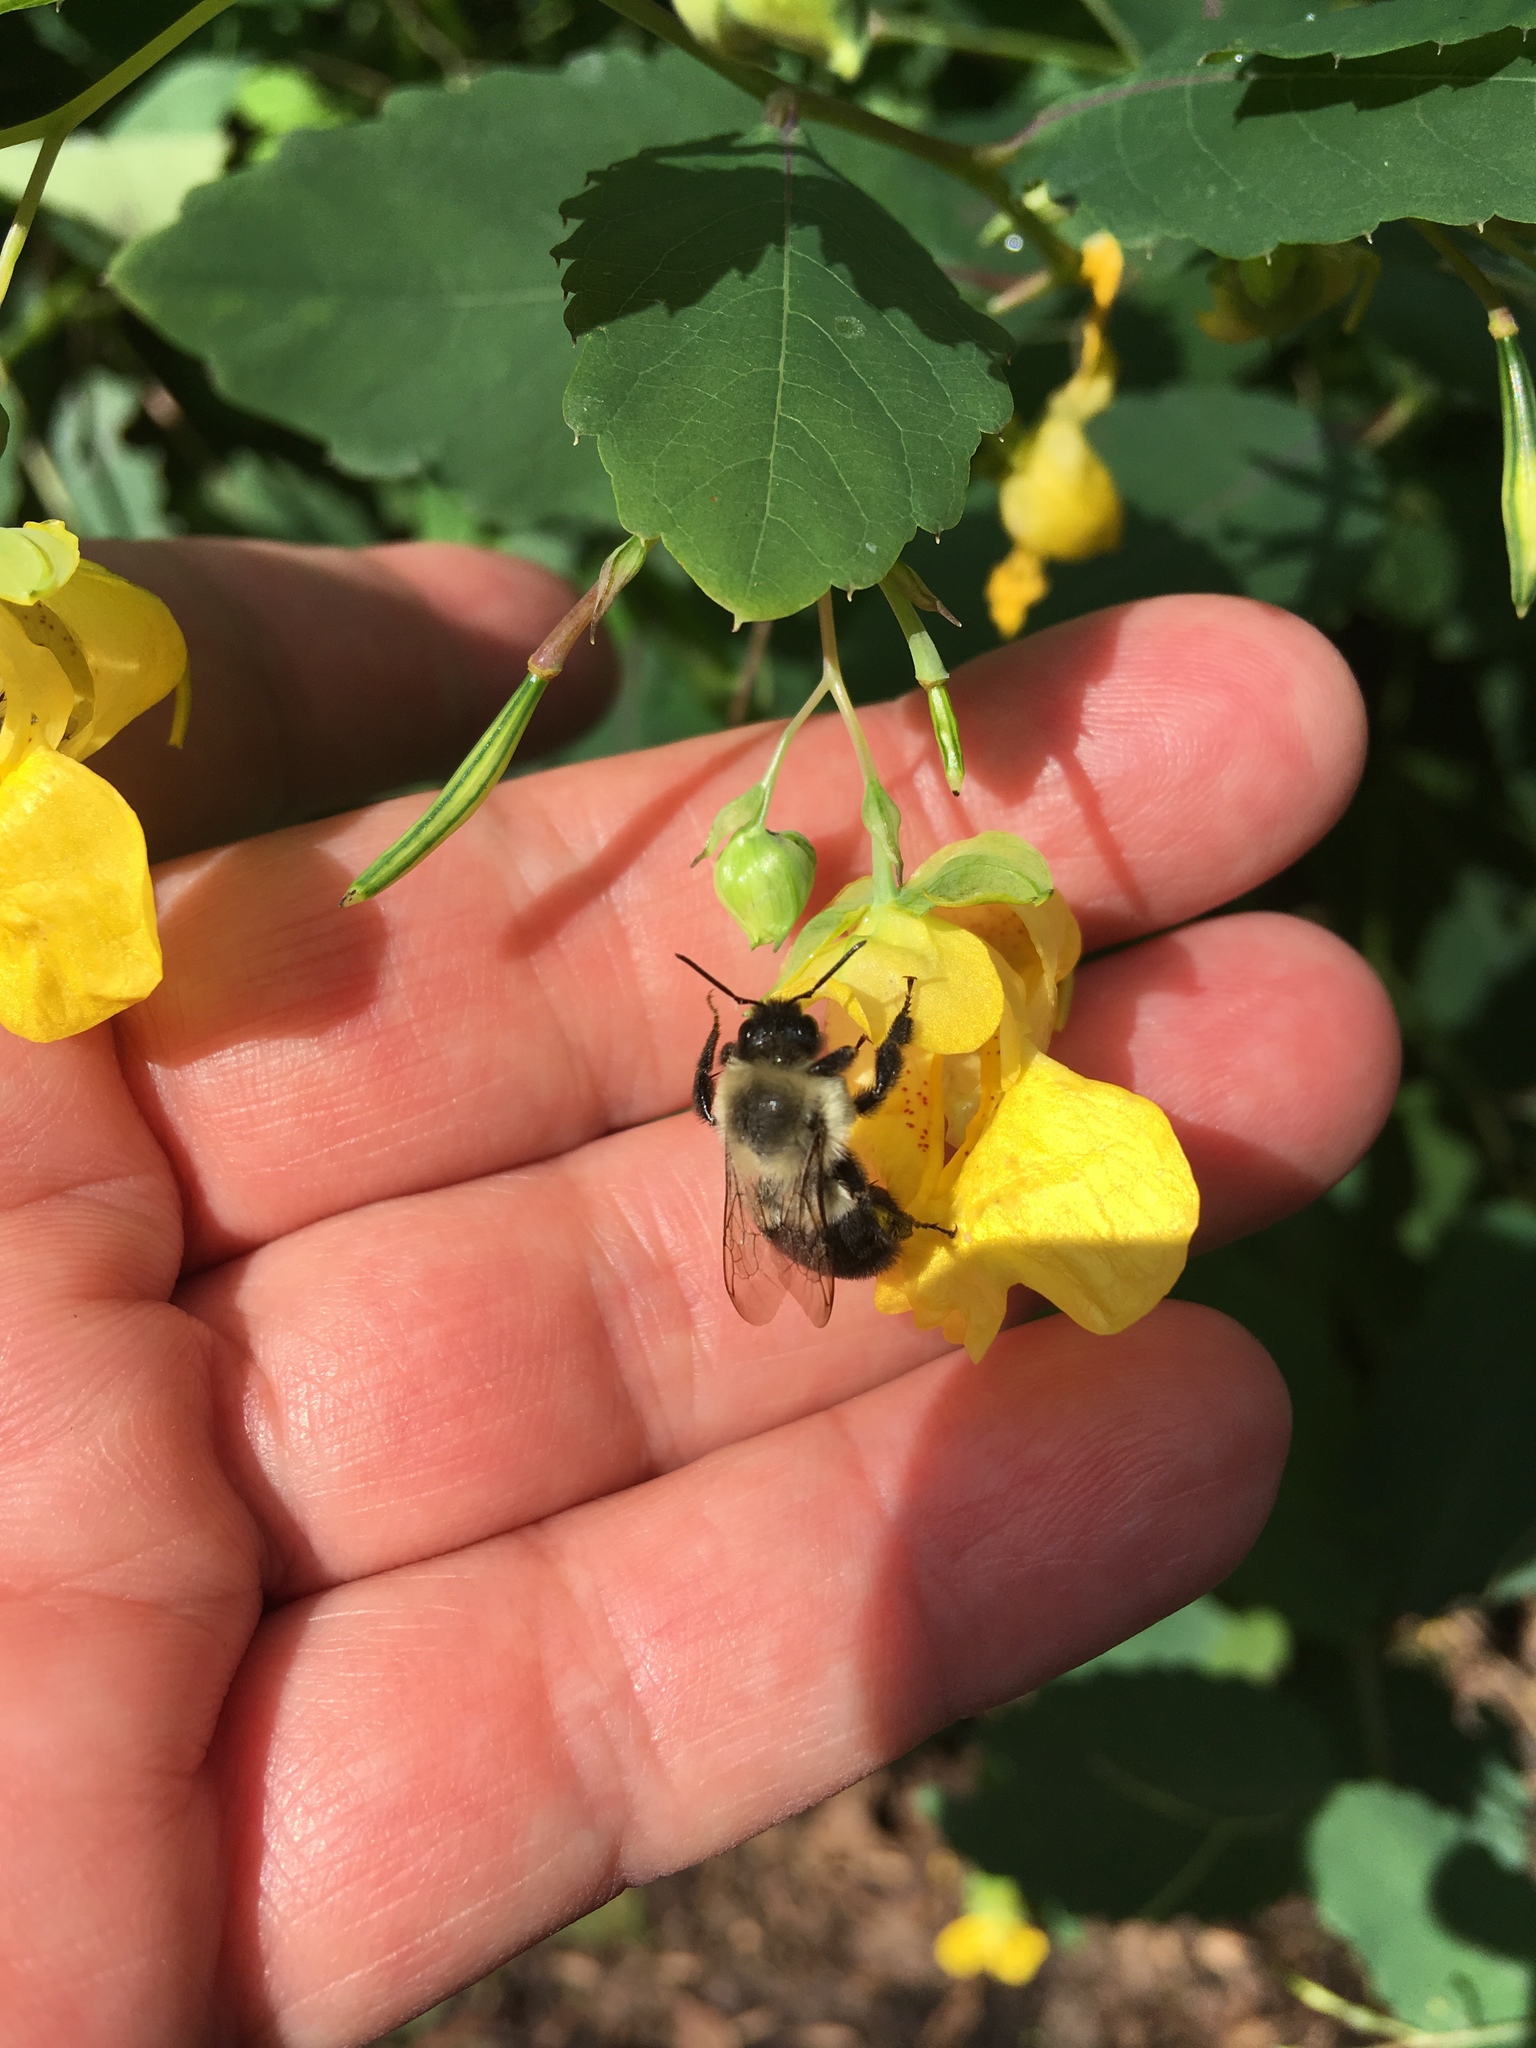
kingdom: Animalia
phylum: Arthropoda
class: Insecta
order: Hymenoptera
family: Apidae
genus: Bombus
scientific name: Bombus impatiens
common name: Common eastern bumble bee
